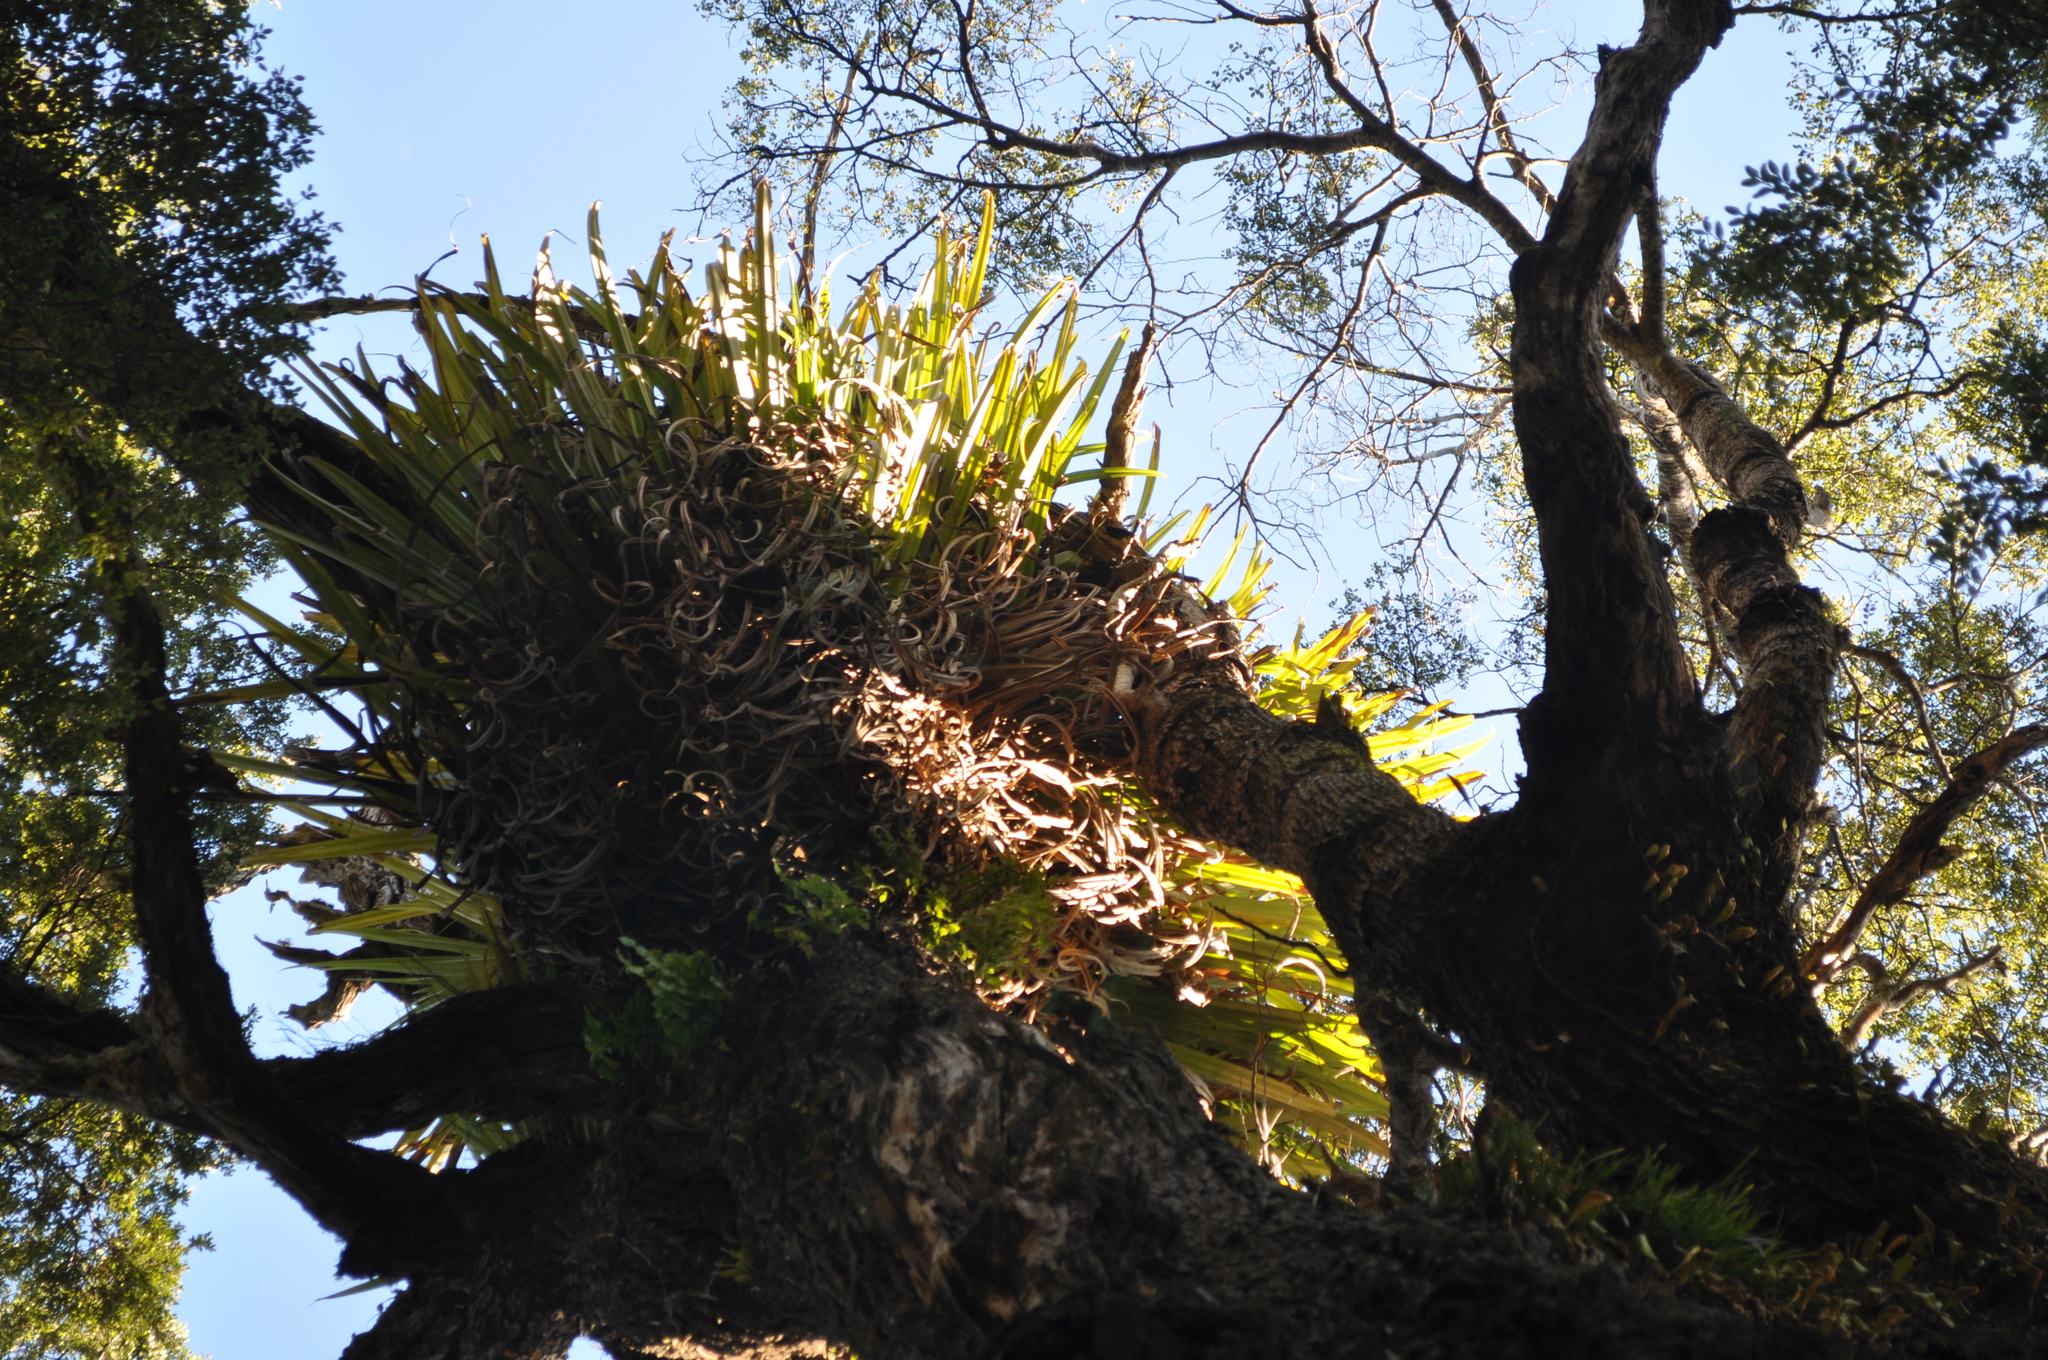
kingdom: Plantae
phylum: Tracheophyta
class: Liliopsida
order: Asparagales
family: Asteliaceae
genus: Astelia
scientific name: Astelia hastata
